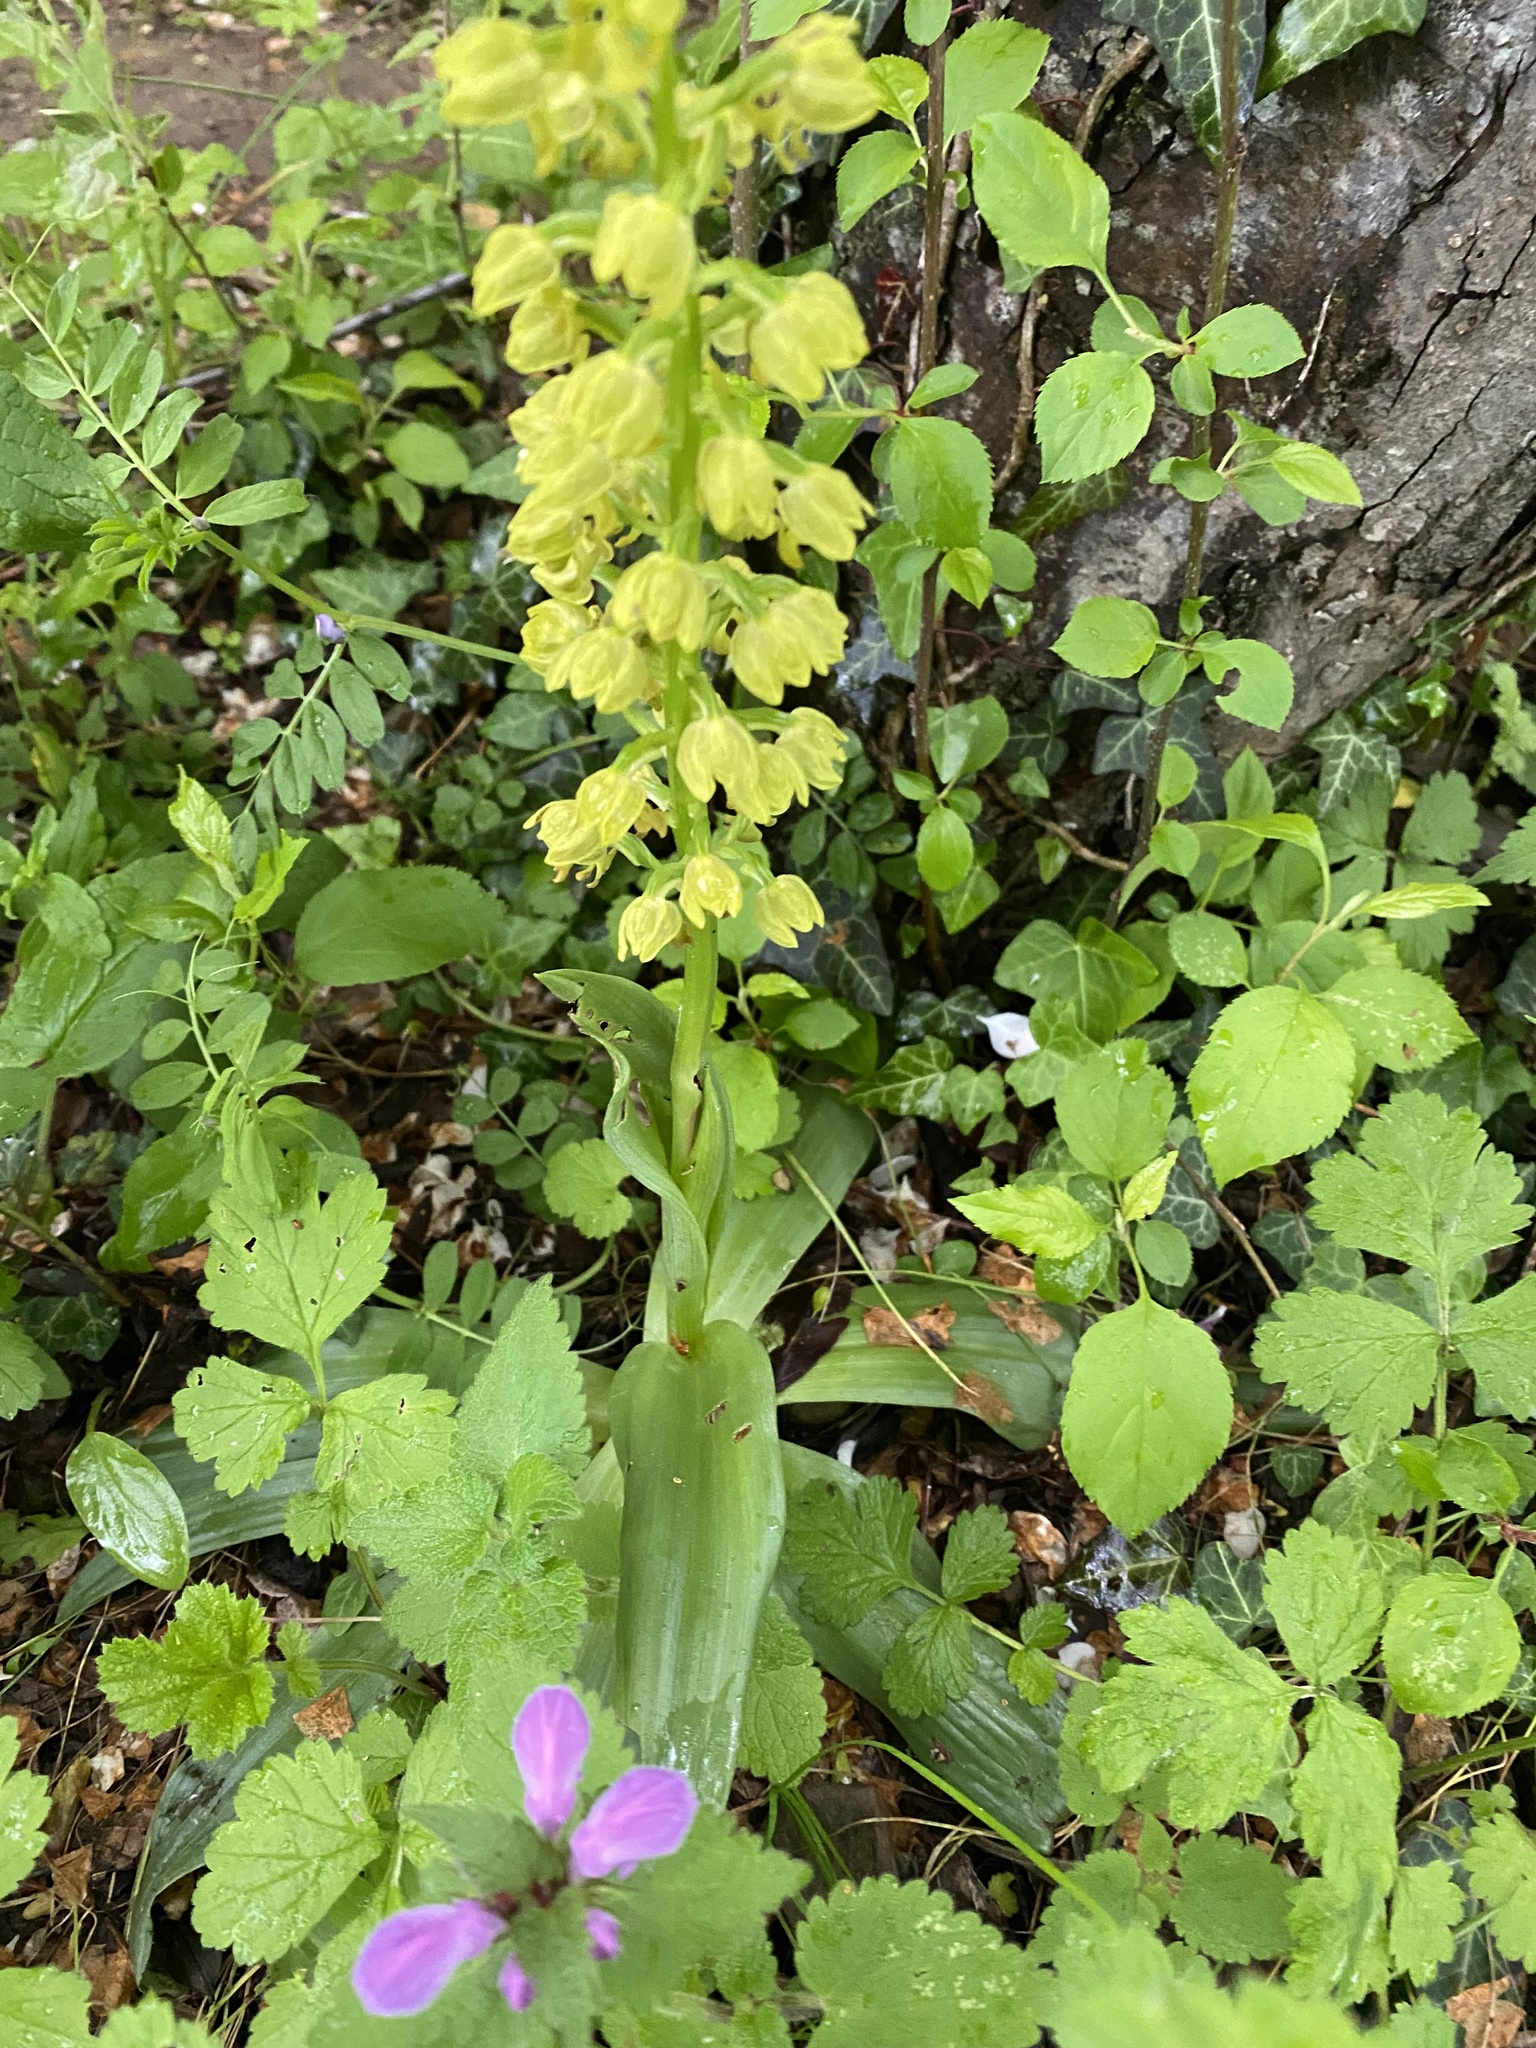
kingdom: Plantae
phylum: Tracheophyta
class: Liliopsida
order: Asparagales
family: Orchidaceae
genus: Orchis
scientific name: Orchis punctulata
